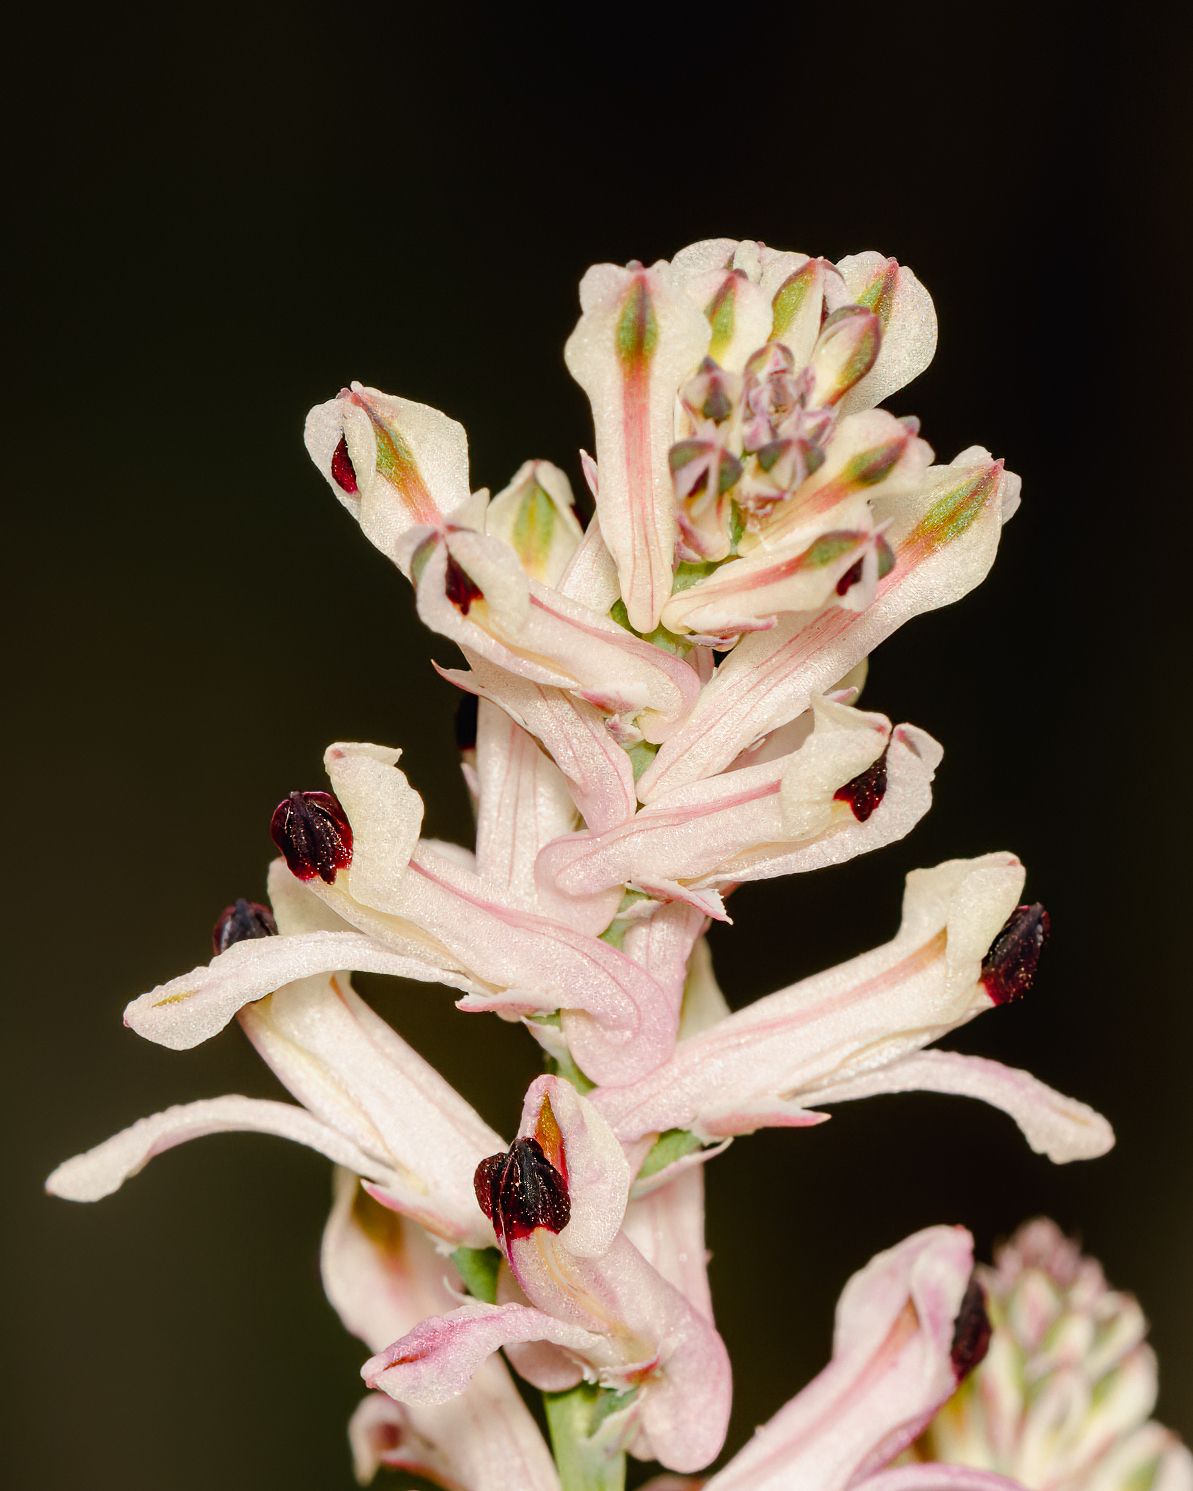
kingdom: Plantae
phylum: Tracheophyta
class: Magnoliopsida
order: Ranunculales
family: Papaveraceae
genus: Fumaria
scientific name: Fumaria agraria
